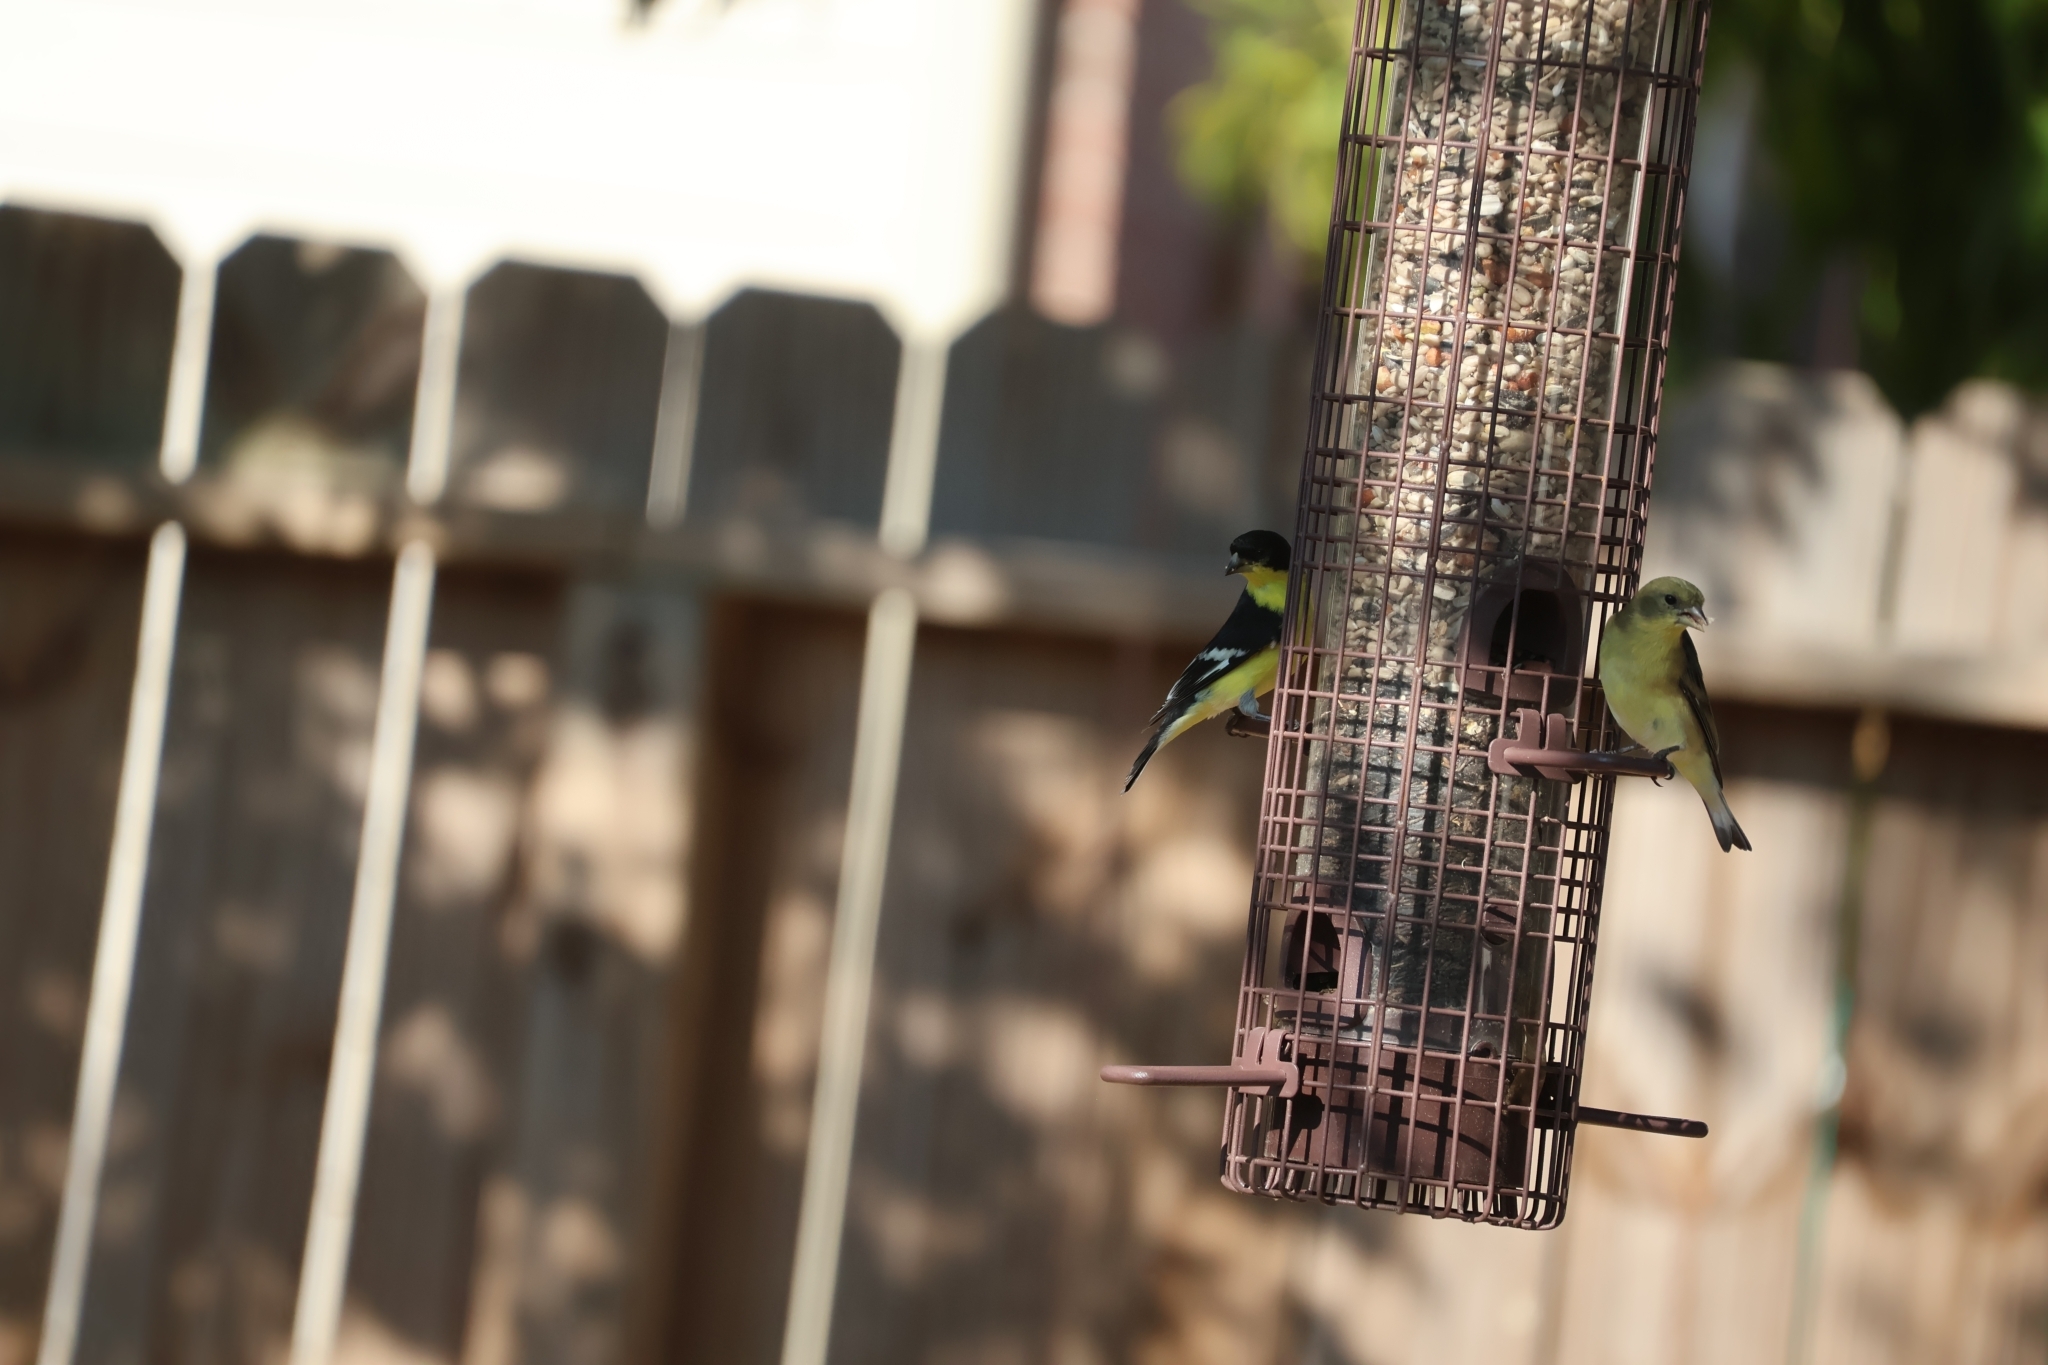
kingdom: Animalia
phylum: Chordata
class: Aves
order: Passeriformes
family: Fringillidae
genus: Spinus
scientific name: Spinus psaltria
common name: Lesser goldfinch
